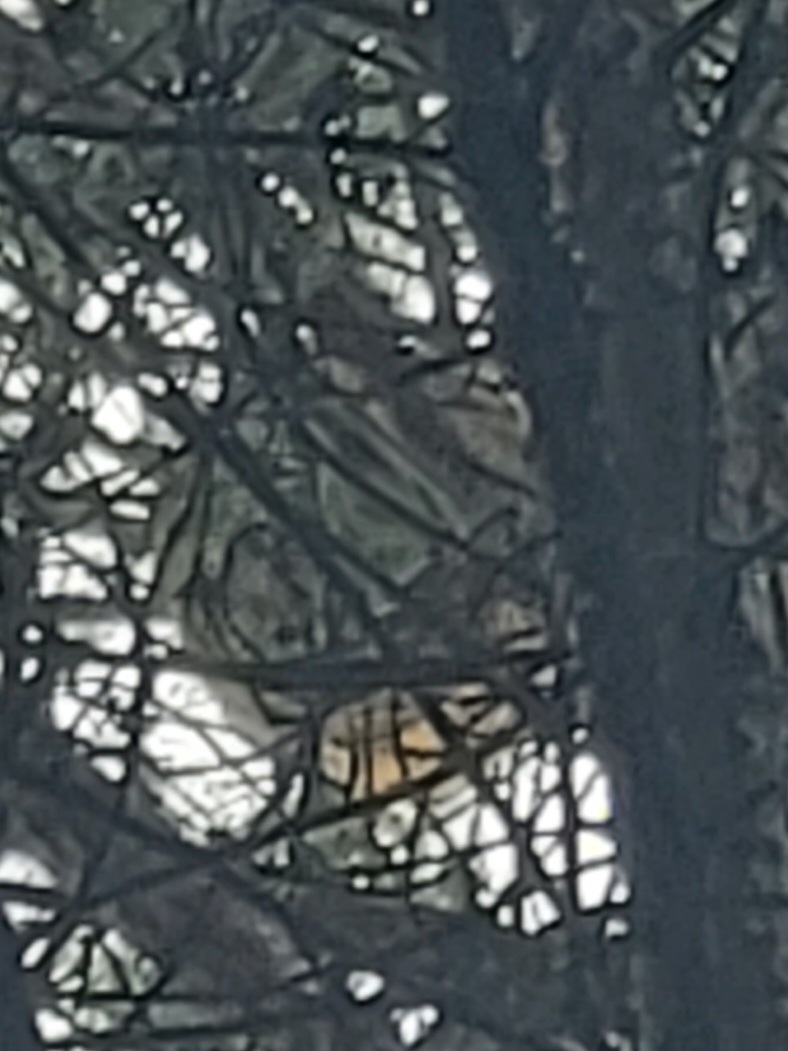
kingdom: Animalia
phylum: Arthropoda
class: Insecta
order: Hymenoptera
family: Vespidae
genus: Vespa
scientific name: Vespa velutina
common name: Asian hornet
